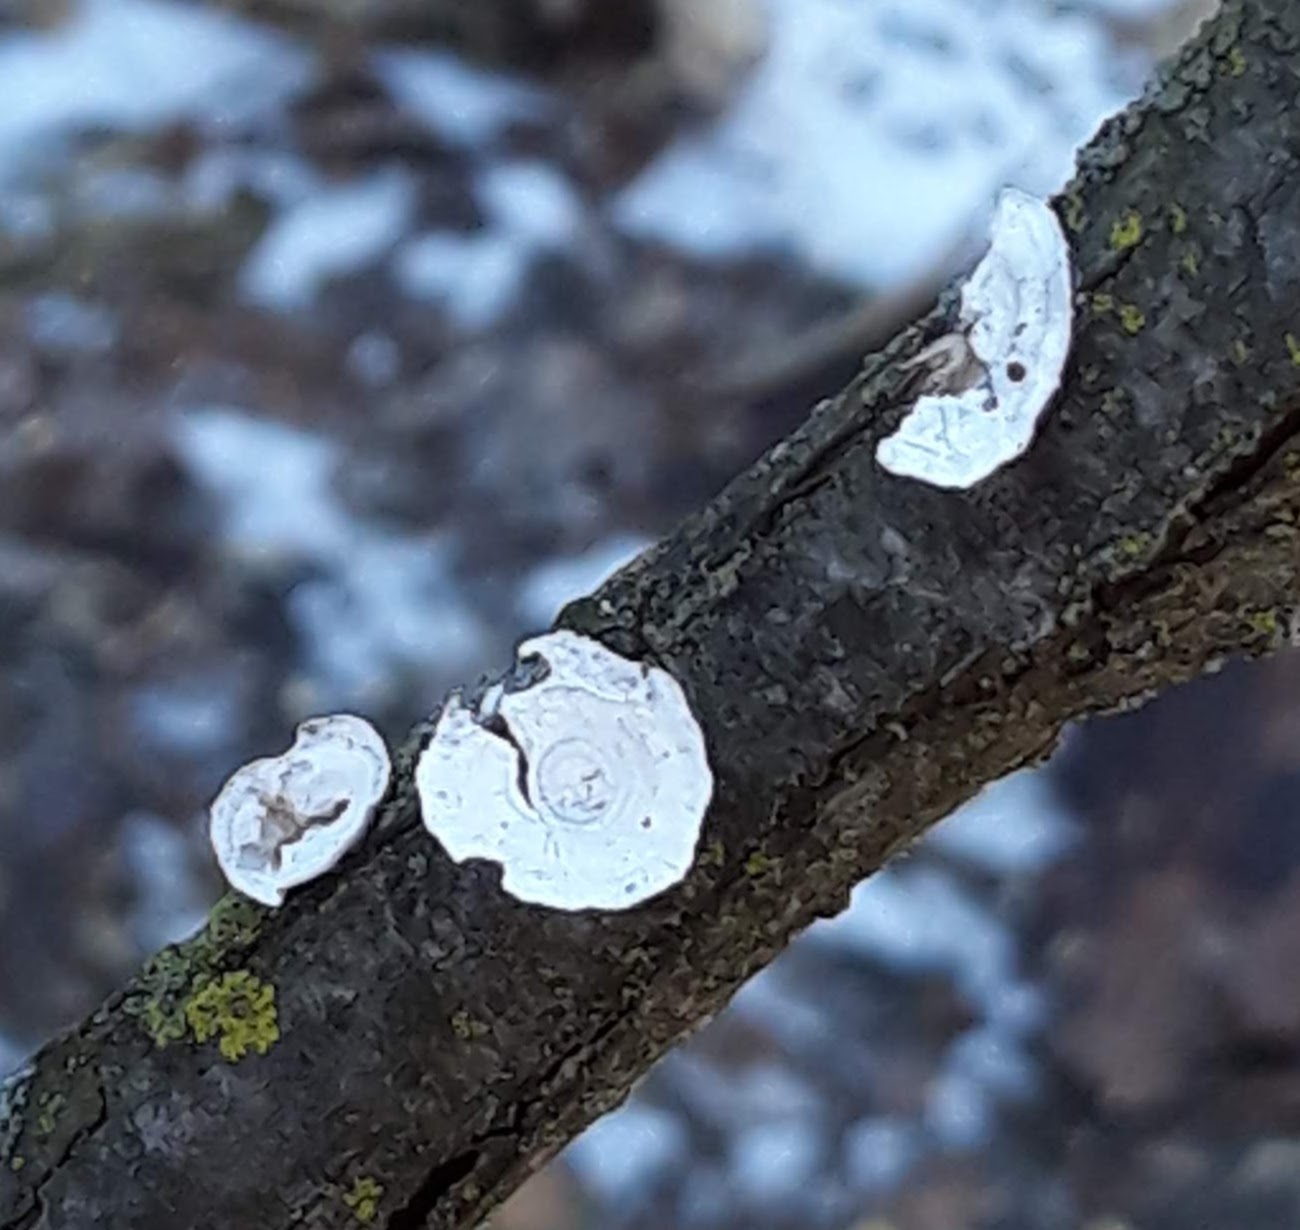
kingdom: Fungi
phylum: Basidiomycota
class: Agaricomycetes
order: Polyporales
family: Polyporaceae
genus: Poronidulus
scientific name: Poronidulus conchifer
